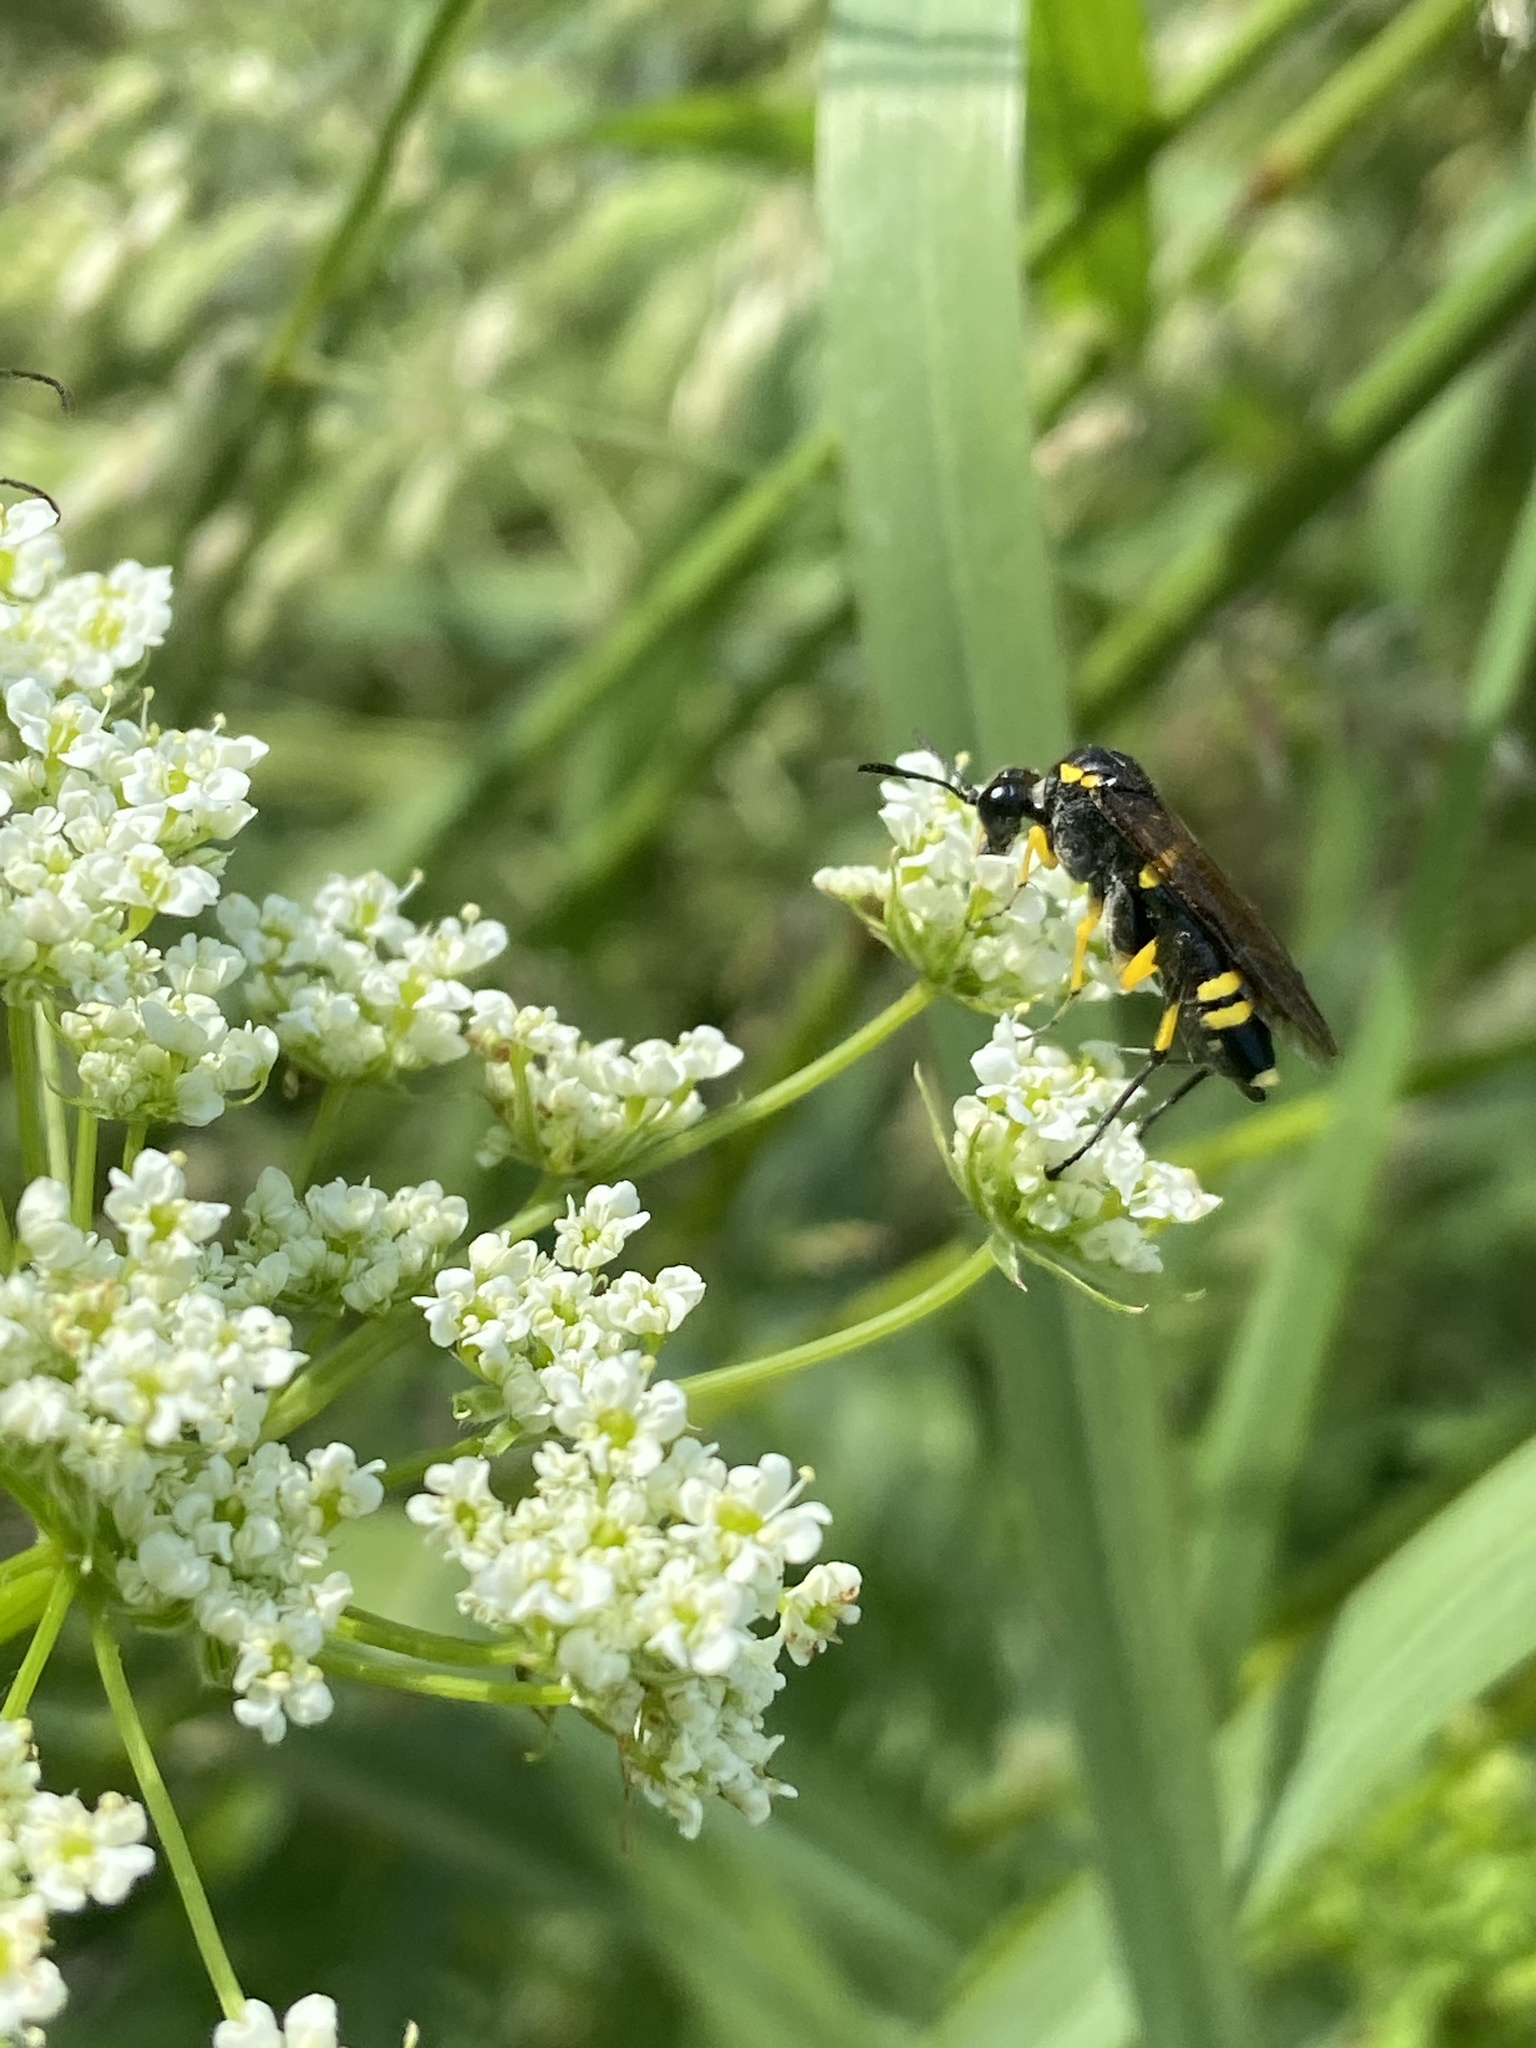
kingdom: Animalia
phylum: Arthropoda
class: Insecta
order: Hymenoptera
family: Tenthredinidae
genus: Macrophya
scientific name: Macrophya montana
